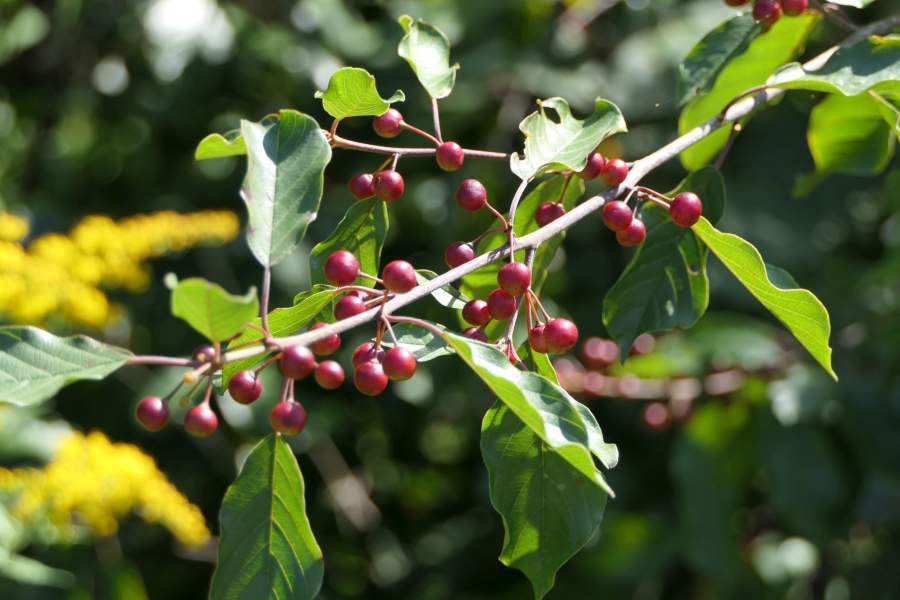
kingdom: Plantae
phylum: Tracheophyta
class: Magnoliopsida
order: Rosales
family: Rhamnaceae
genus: Frangula
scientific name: Frangula alnus
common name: Alder buckthorn
